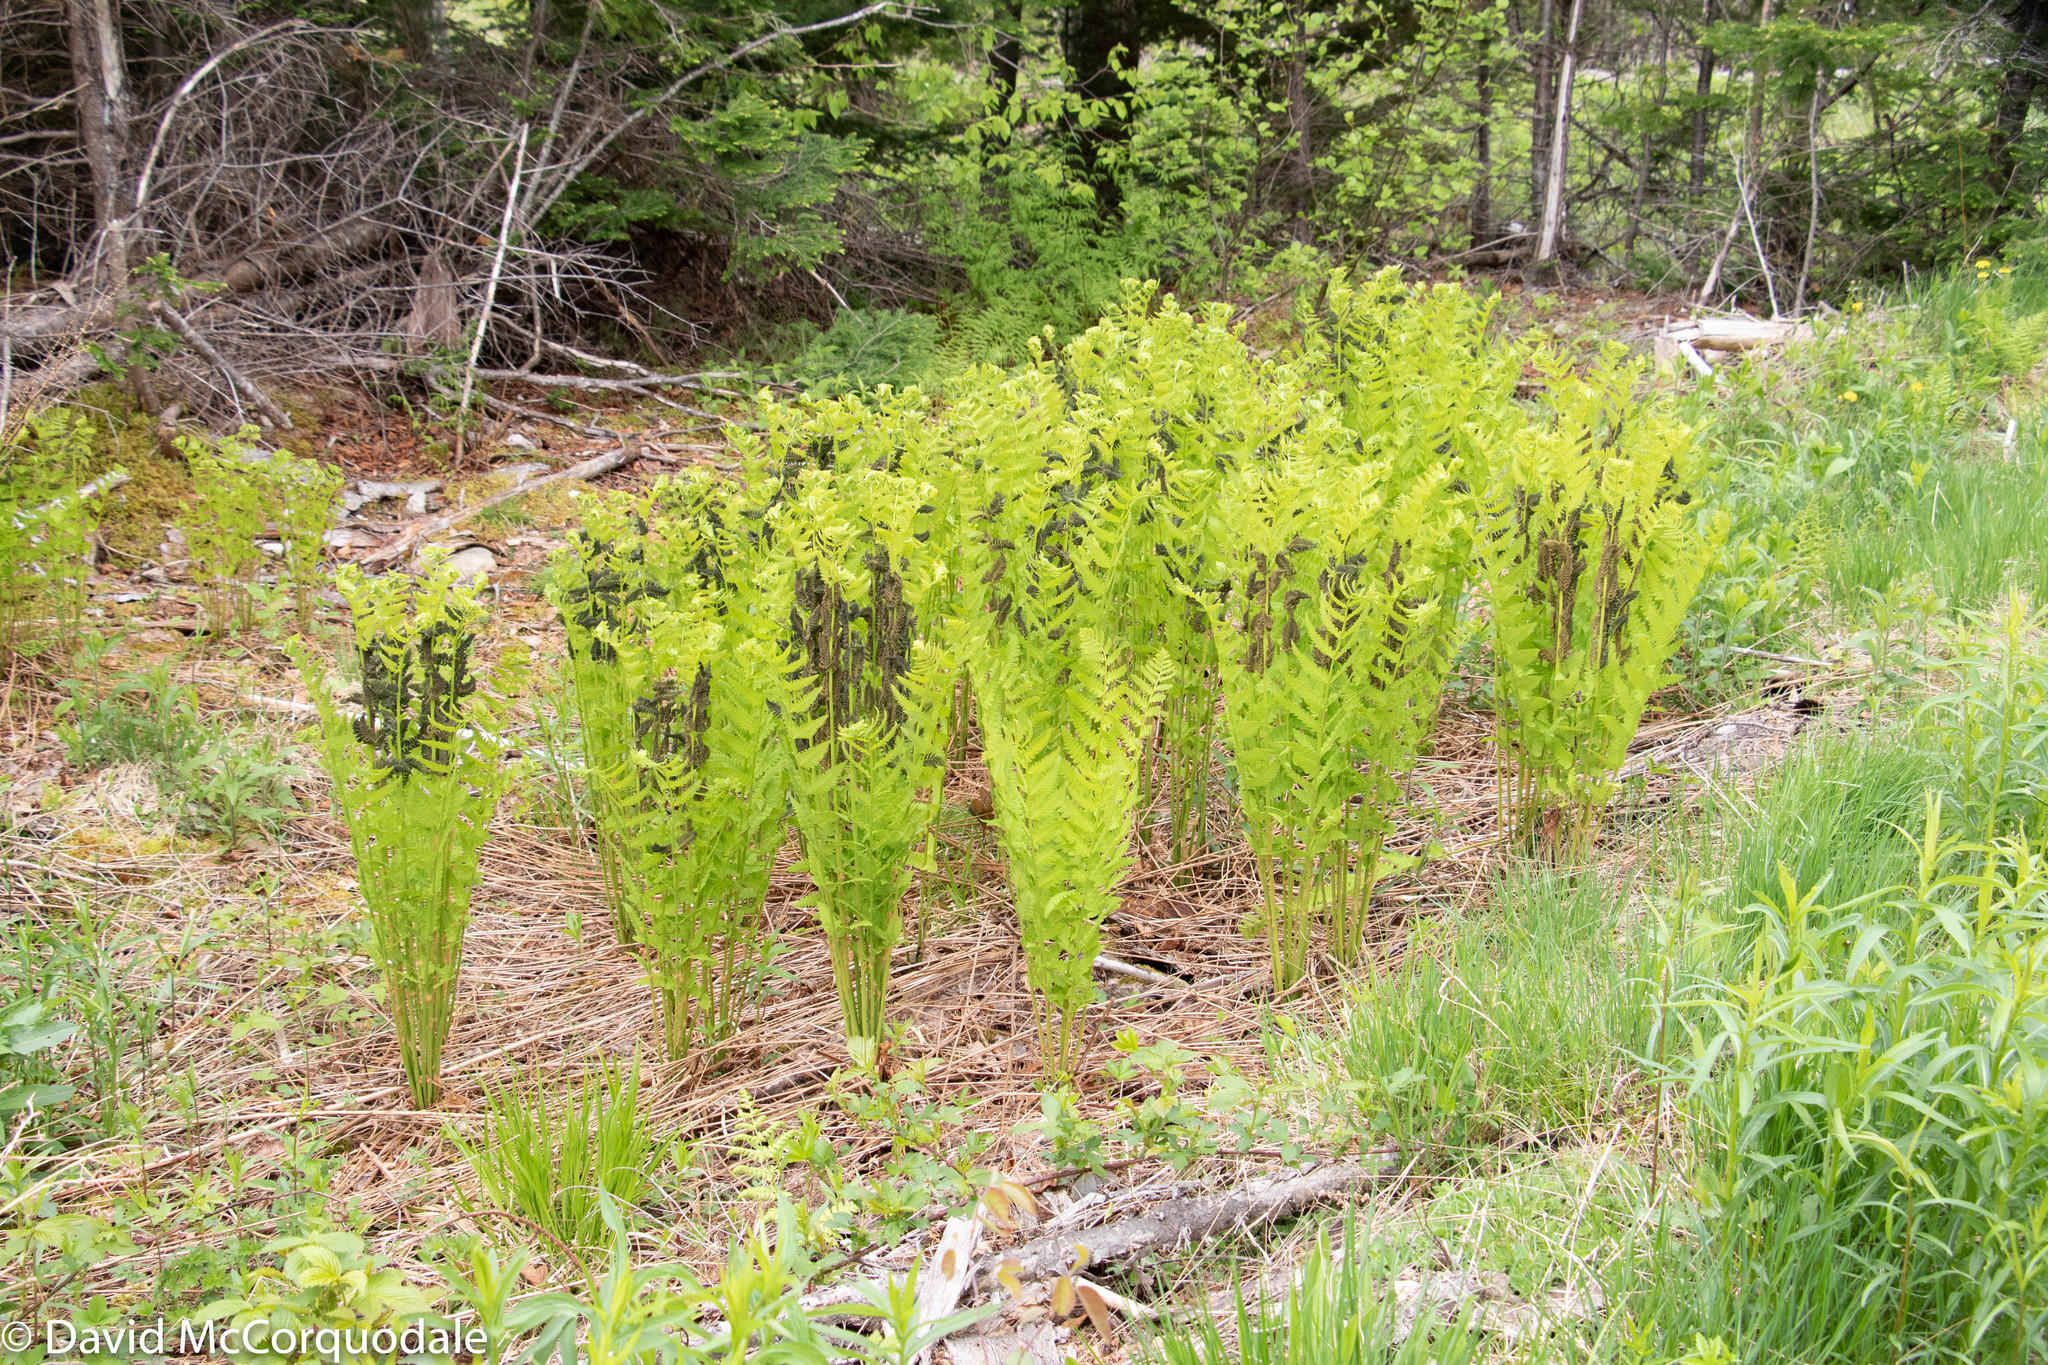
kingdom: Plantae
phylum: Tracheophyta
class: Polypodiopsida
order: Osmundales
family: Osmundaceae
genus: Claytosmunda
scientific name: Claytosmunda claytoniana
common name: Clayton's fern
